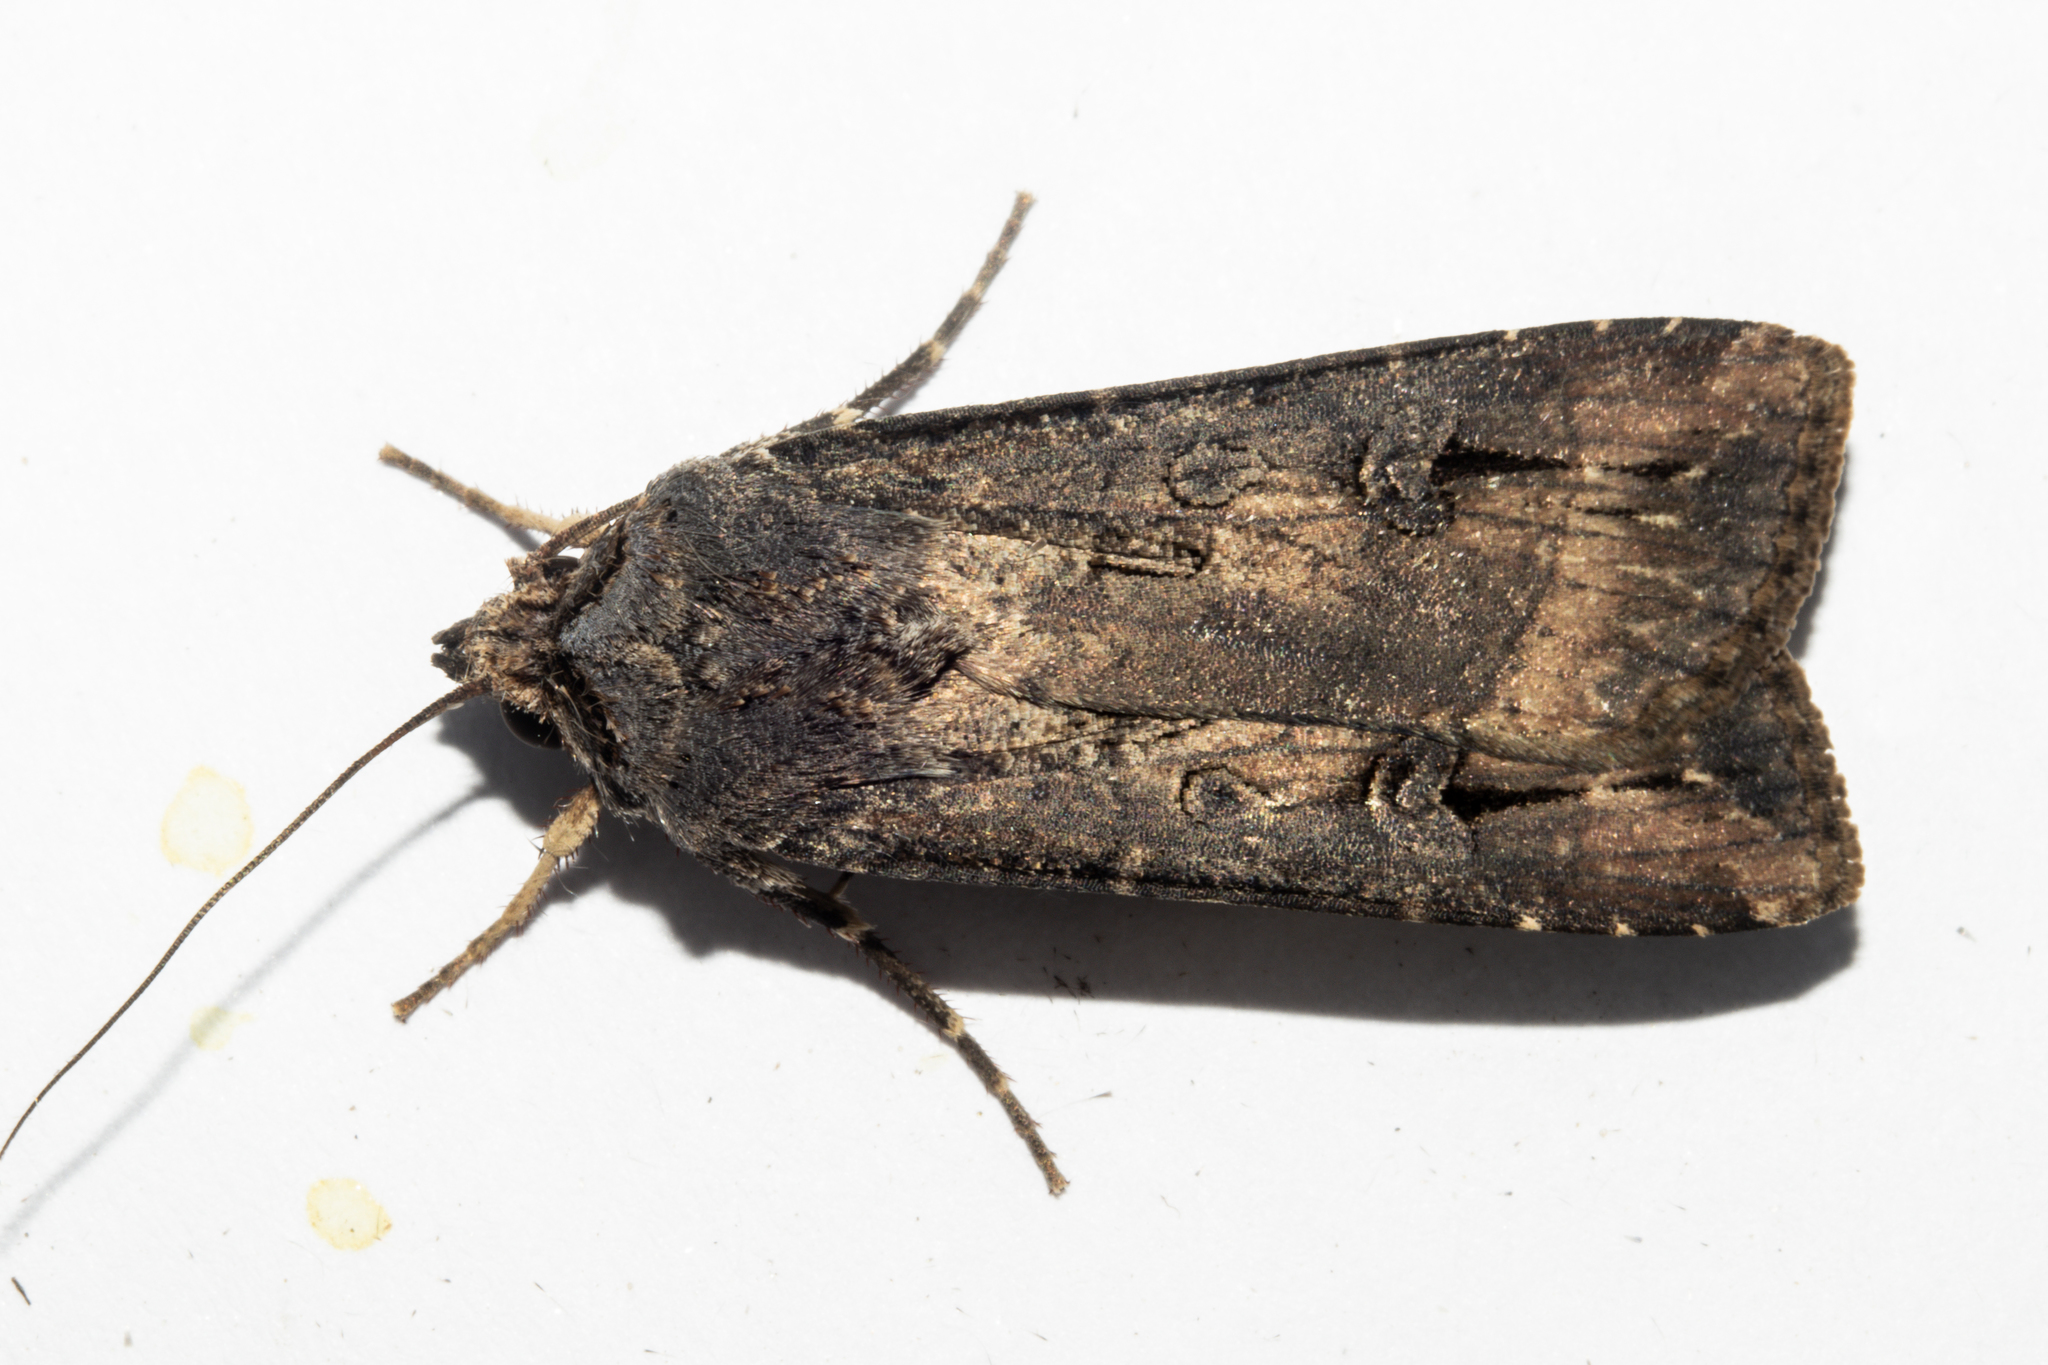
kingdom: Animalia
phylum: Arthropoda
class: Insecta
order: Lepidoptera
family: Noctuidae
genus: Agrotis
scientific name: Agrotis ipsilon
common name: Dark sword-grass
